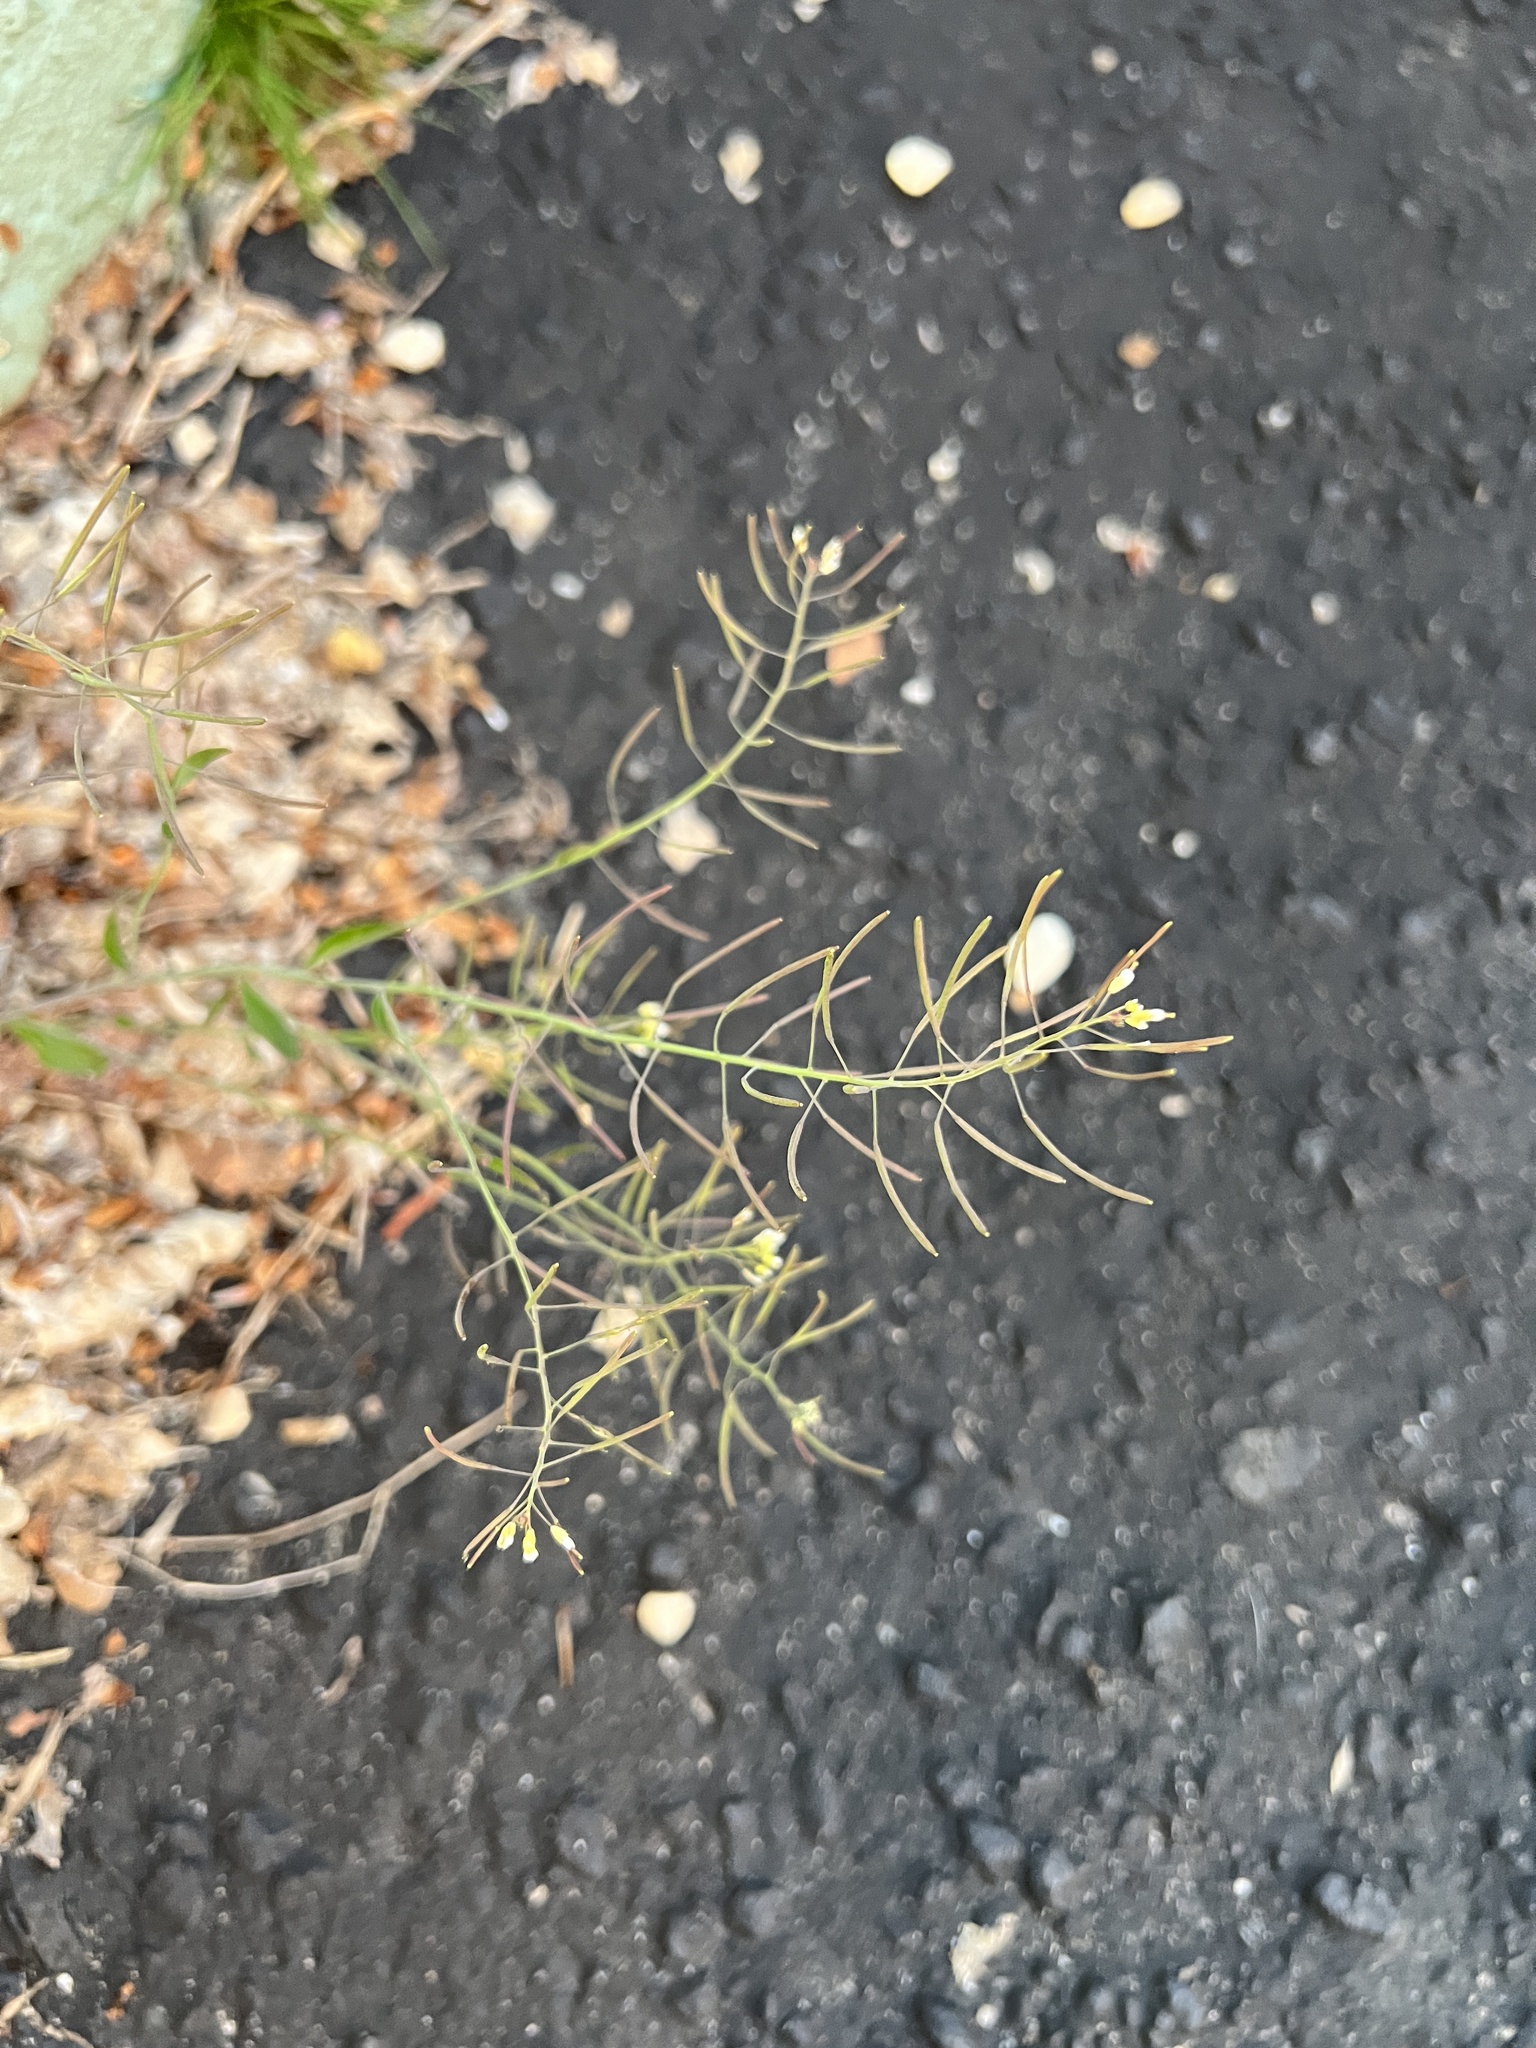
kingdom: Plantae
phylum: Tracheophyta
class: Magnoliopsida
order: Brassicales
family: Brassicaceae
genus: Arabidopsis
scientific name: Arabidopsis thaliana
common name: Thale cress
